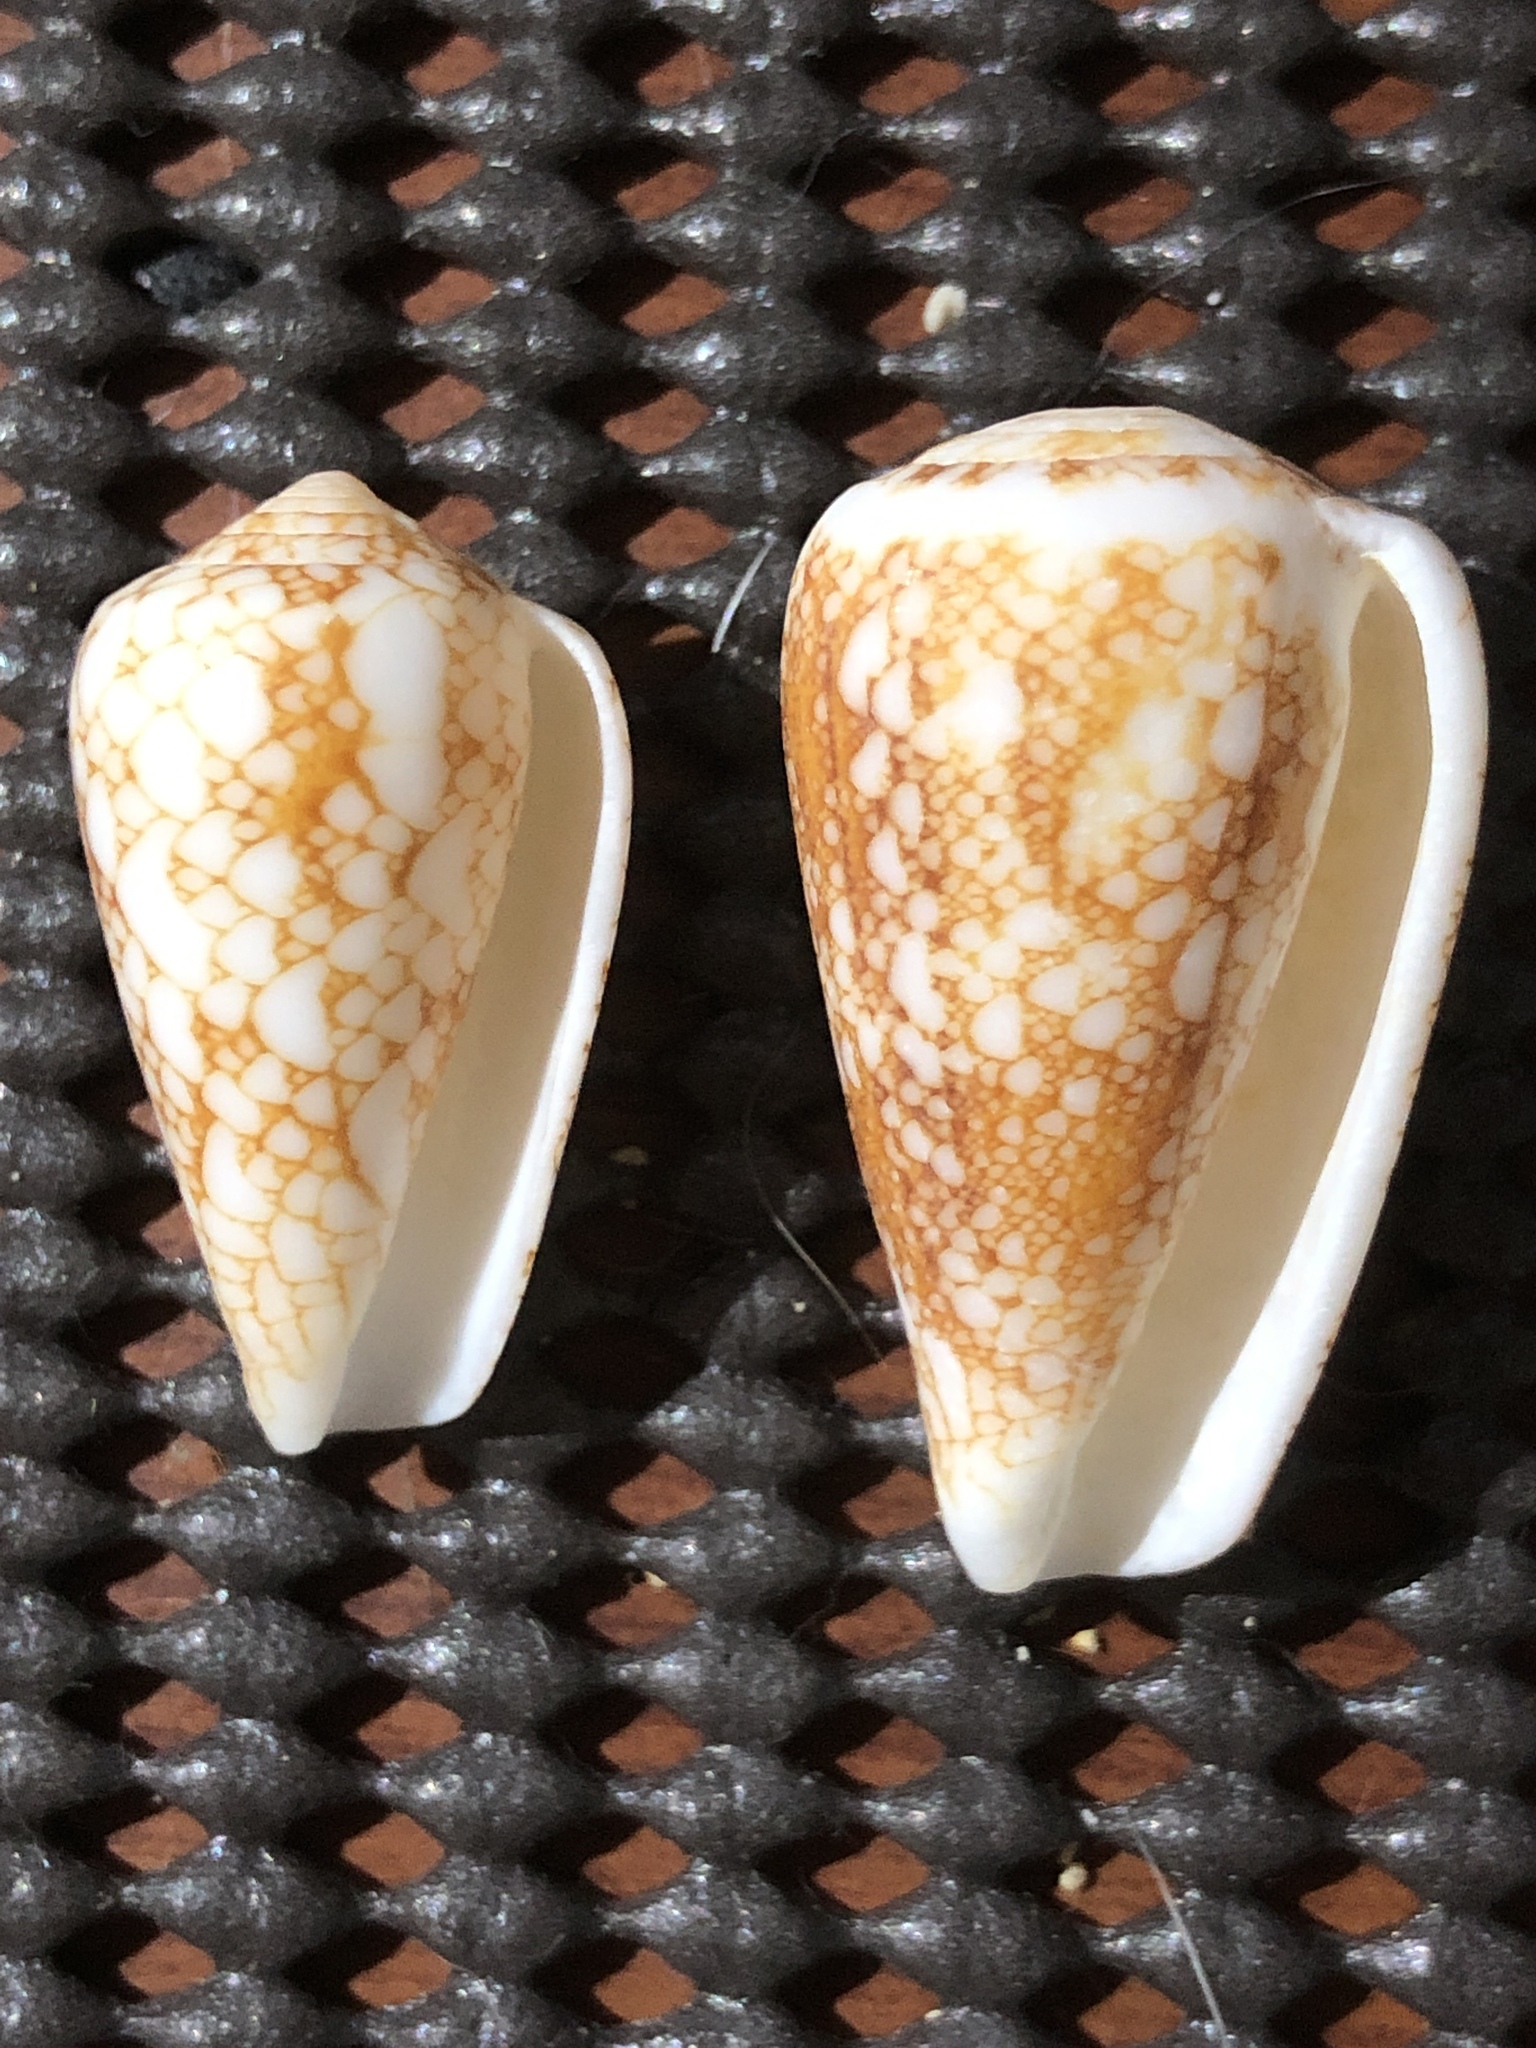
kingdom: Animalia
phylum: Mollusca
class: Gastropoda
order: Neogastropoda
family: Conidae
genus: Conus
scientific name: Conus omaria
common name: Omaria cone
